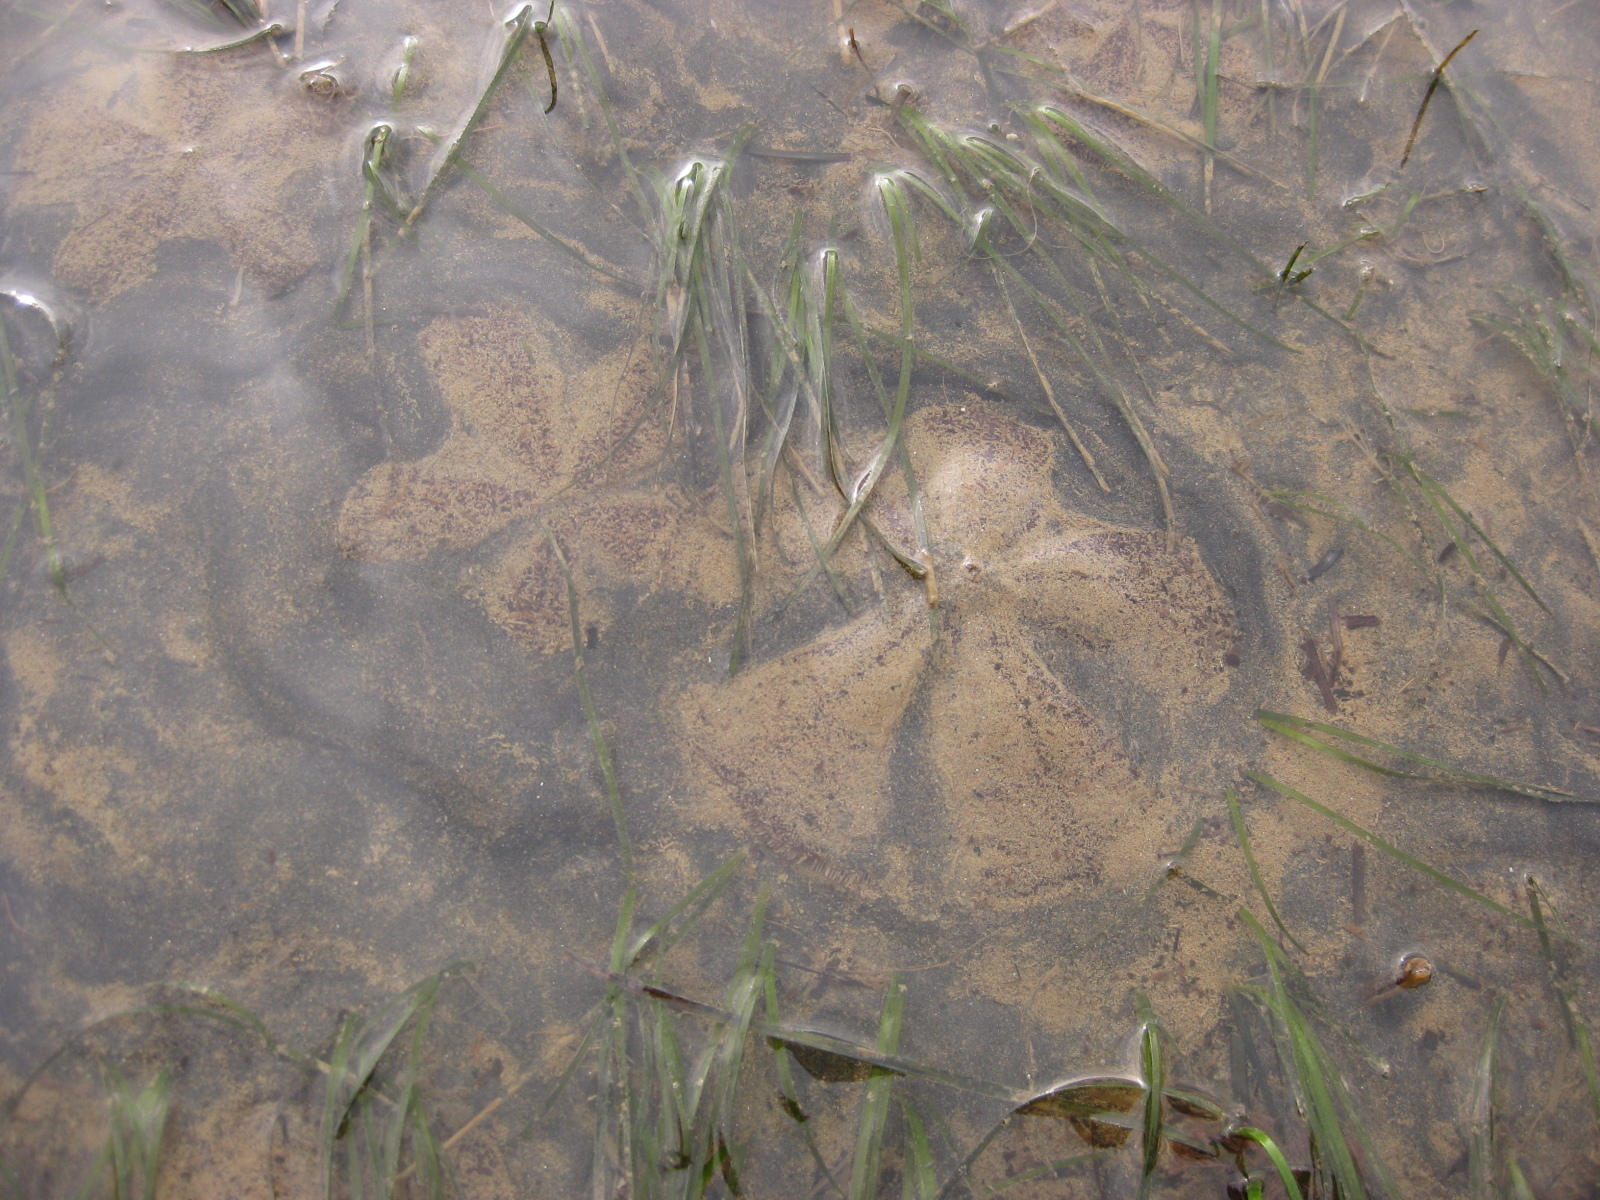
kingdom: Animalia
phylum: Echinodermata
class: Echinoidea
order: Clypeasteroida
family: Clypeasteridae
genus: Fellaster
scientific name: Fellaster zelandiae
